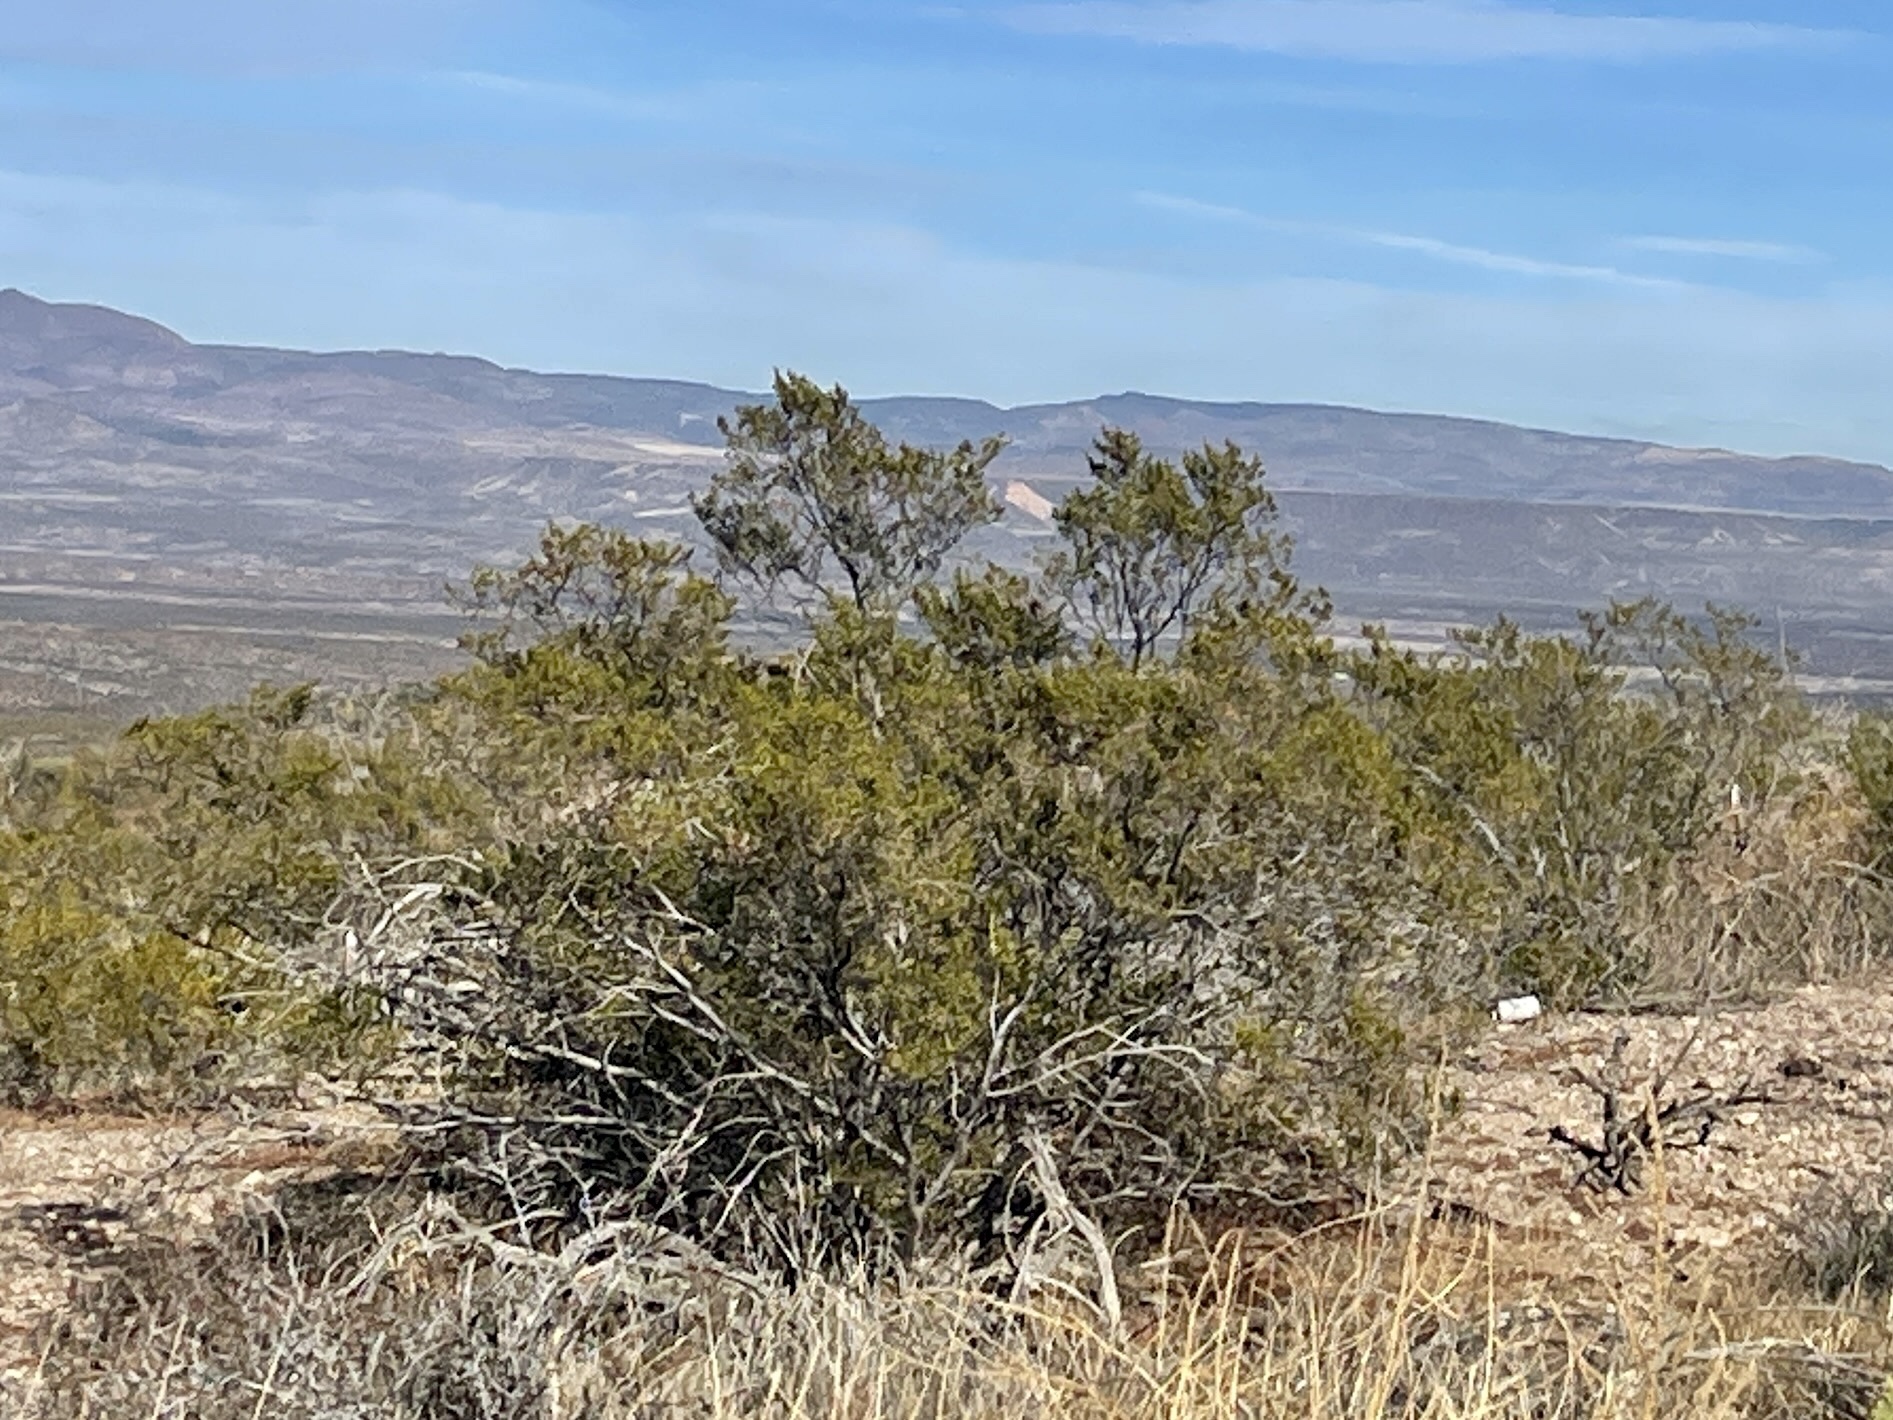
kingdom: Plantae
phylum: Tracheophyta
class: Magnoliopsida
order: Zygophyllales
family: Zygophyllaceae
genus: Larrea
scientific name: Larrea tridentata
